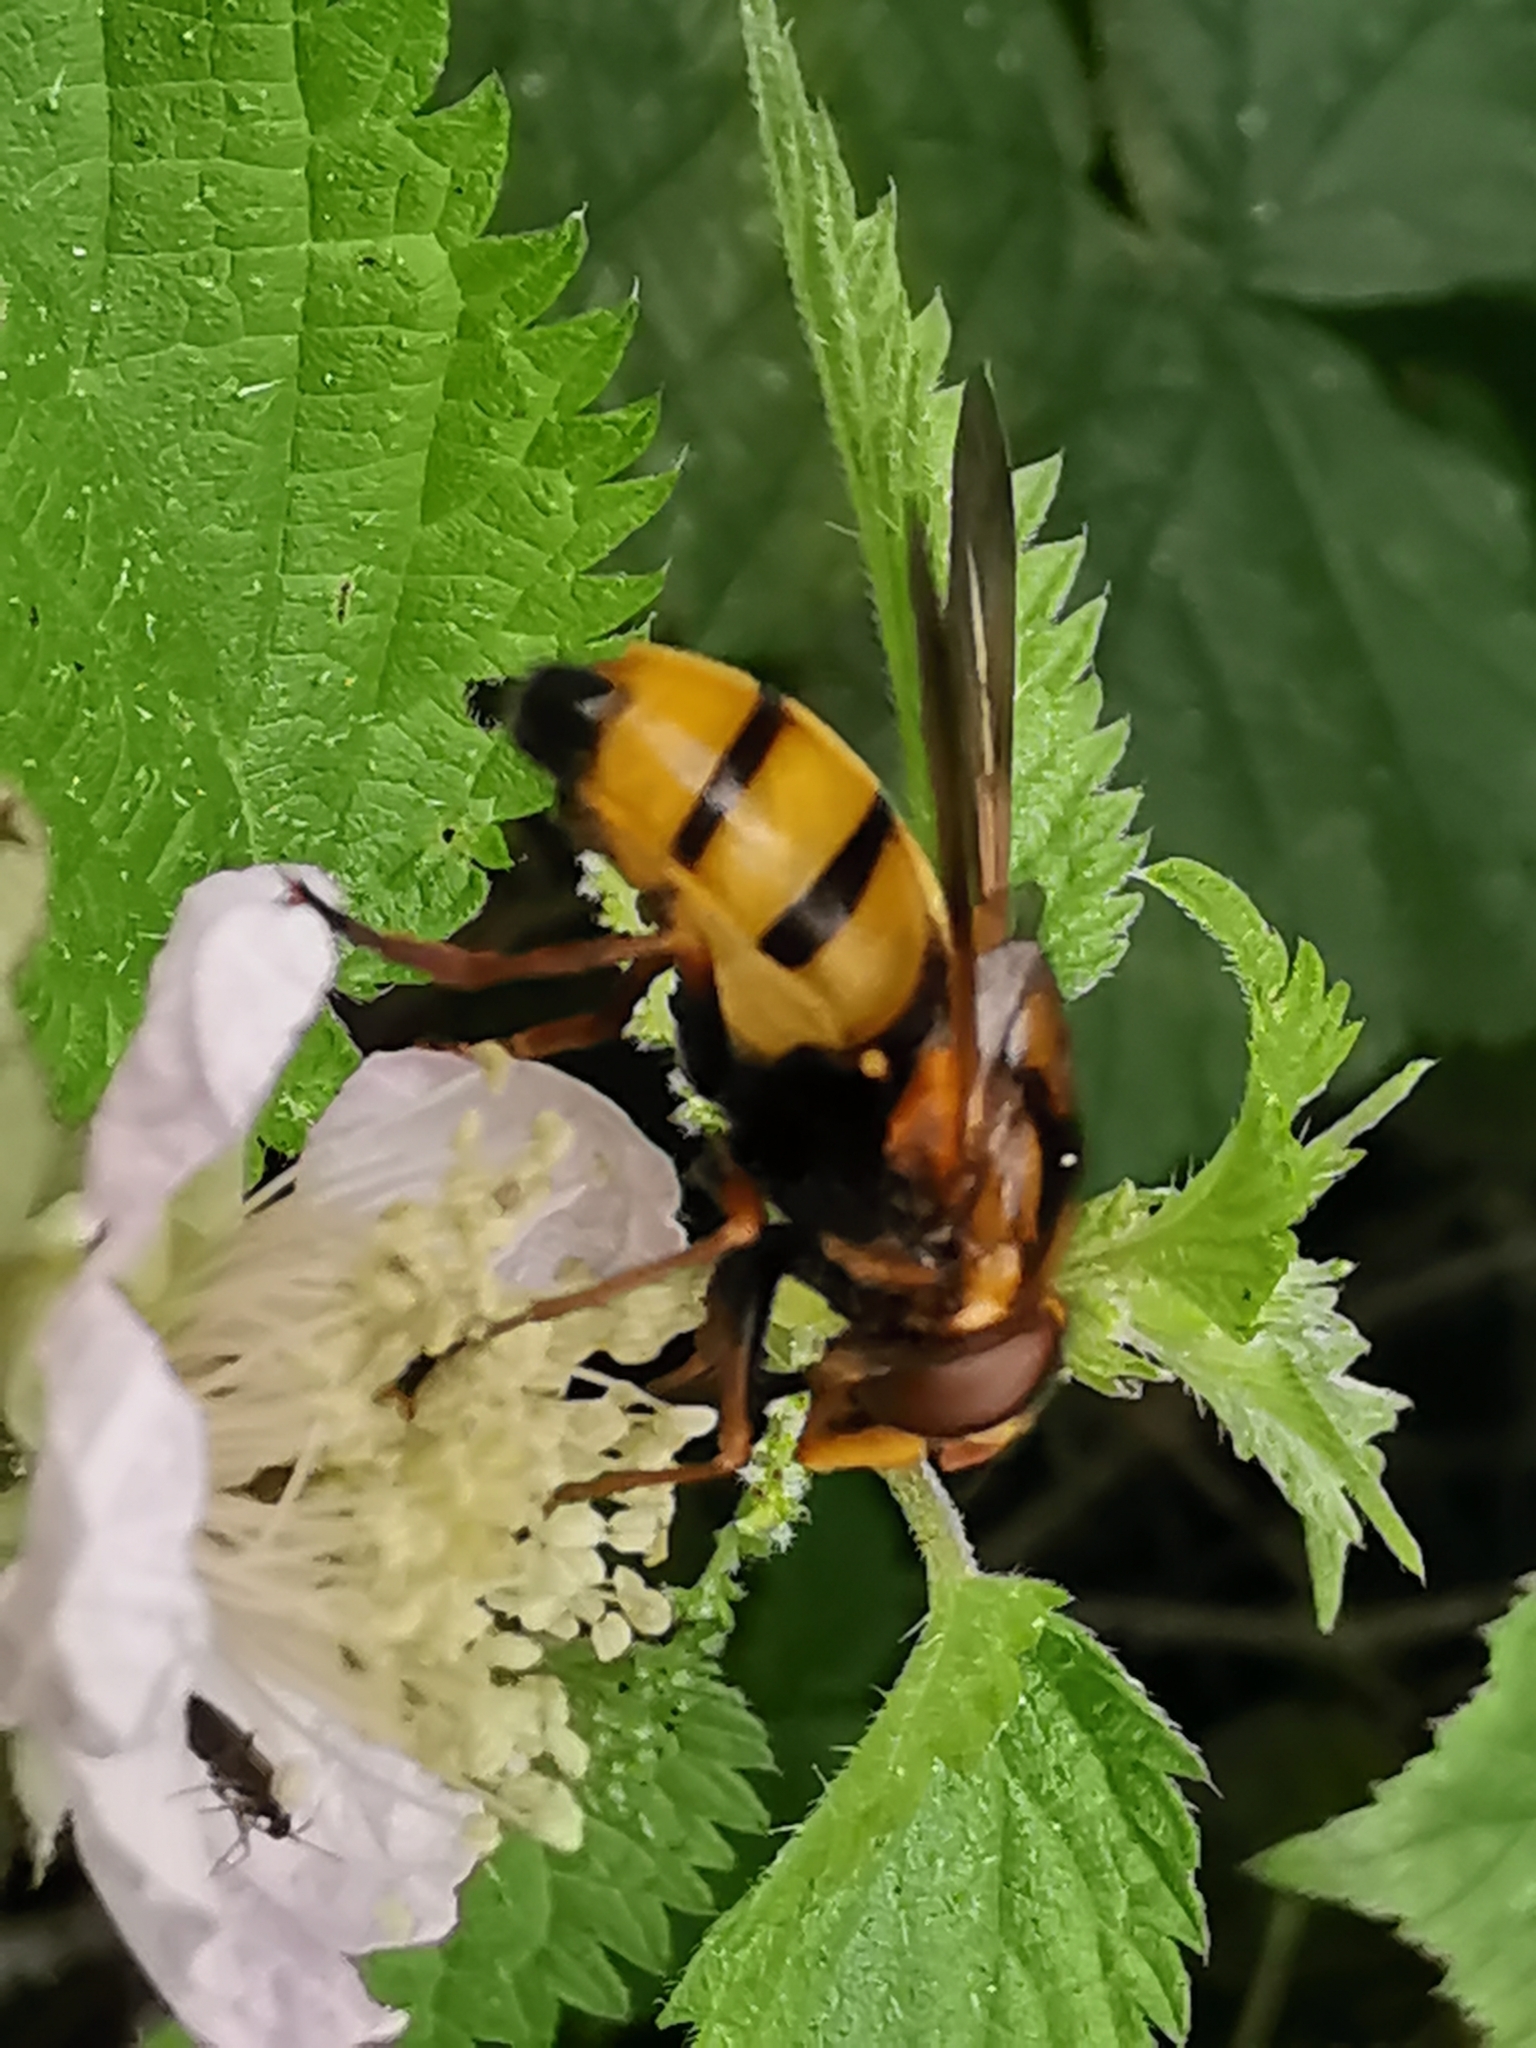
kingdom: Animalia
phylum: Arthropoda
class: Insecta
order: Diptera
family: Syrphidae
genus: Volucella
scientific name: Volucella inanis
